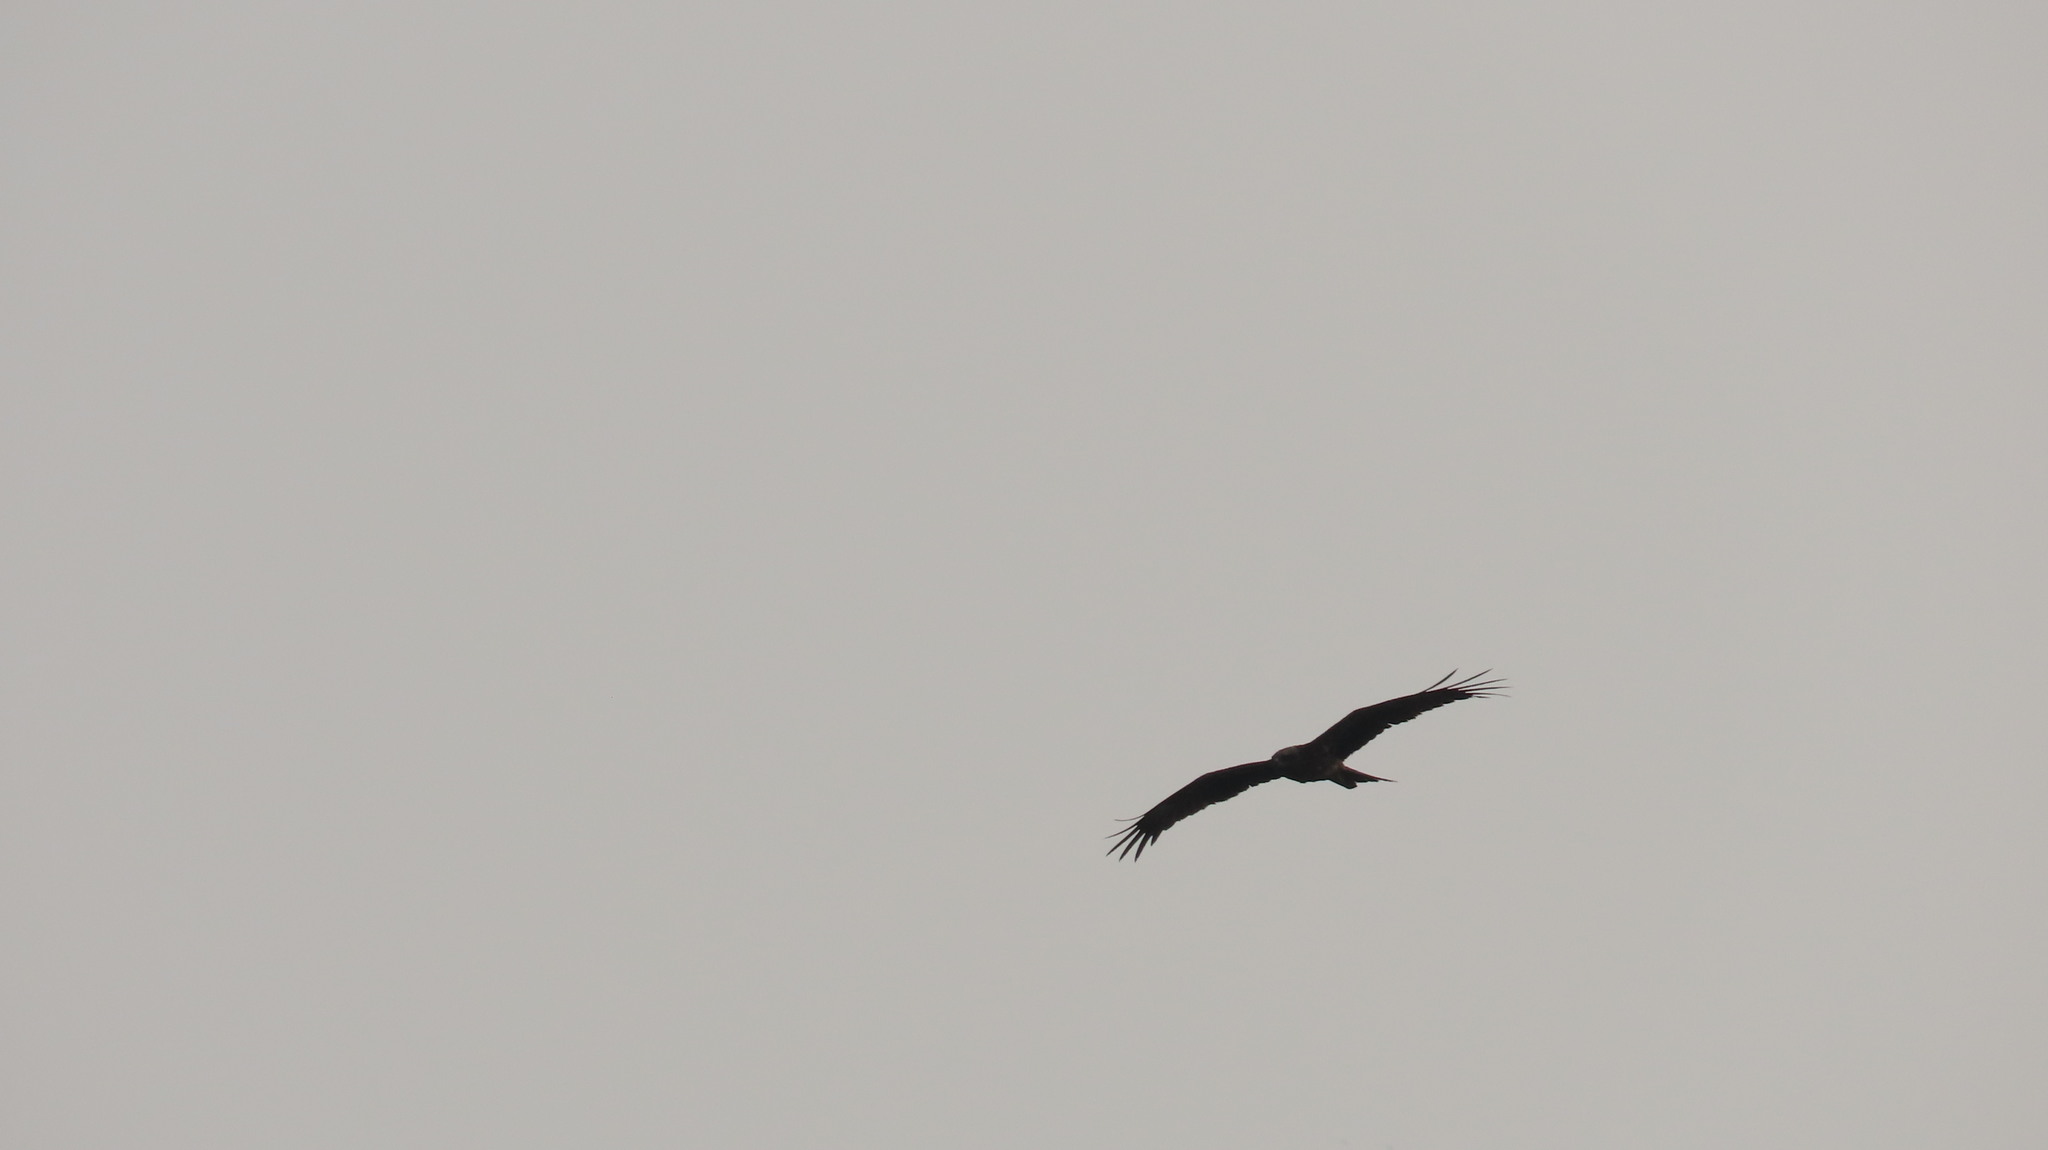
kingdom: Animalia
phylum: Chordata
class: Aves
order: Accipitriformes
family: Accipitridae
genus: Milvus
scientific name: Milvus migrans
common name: Black kite
